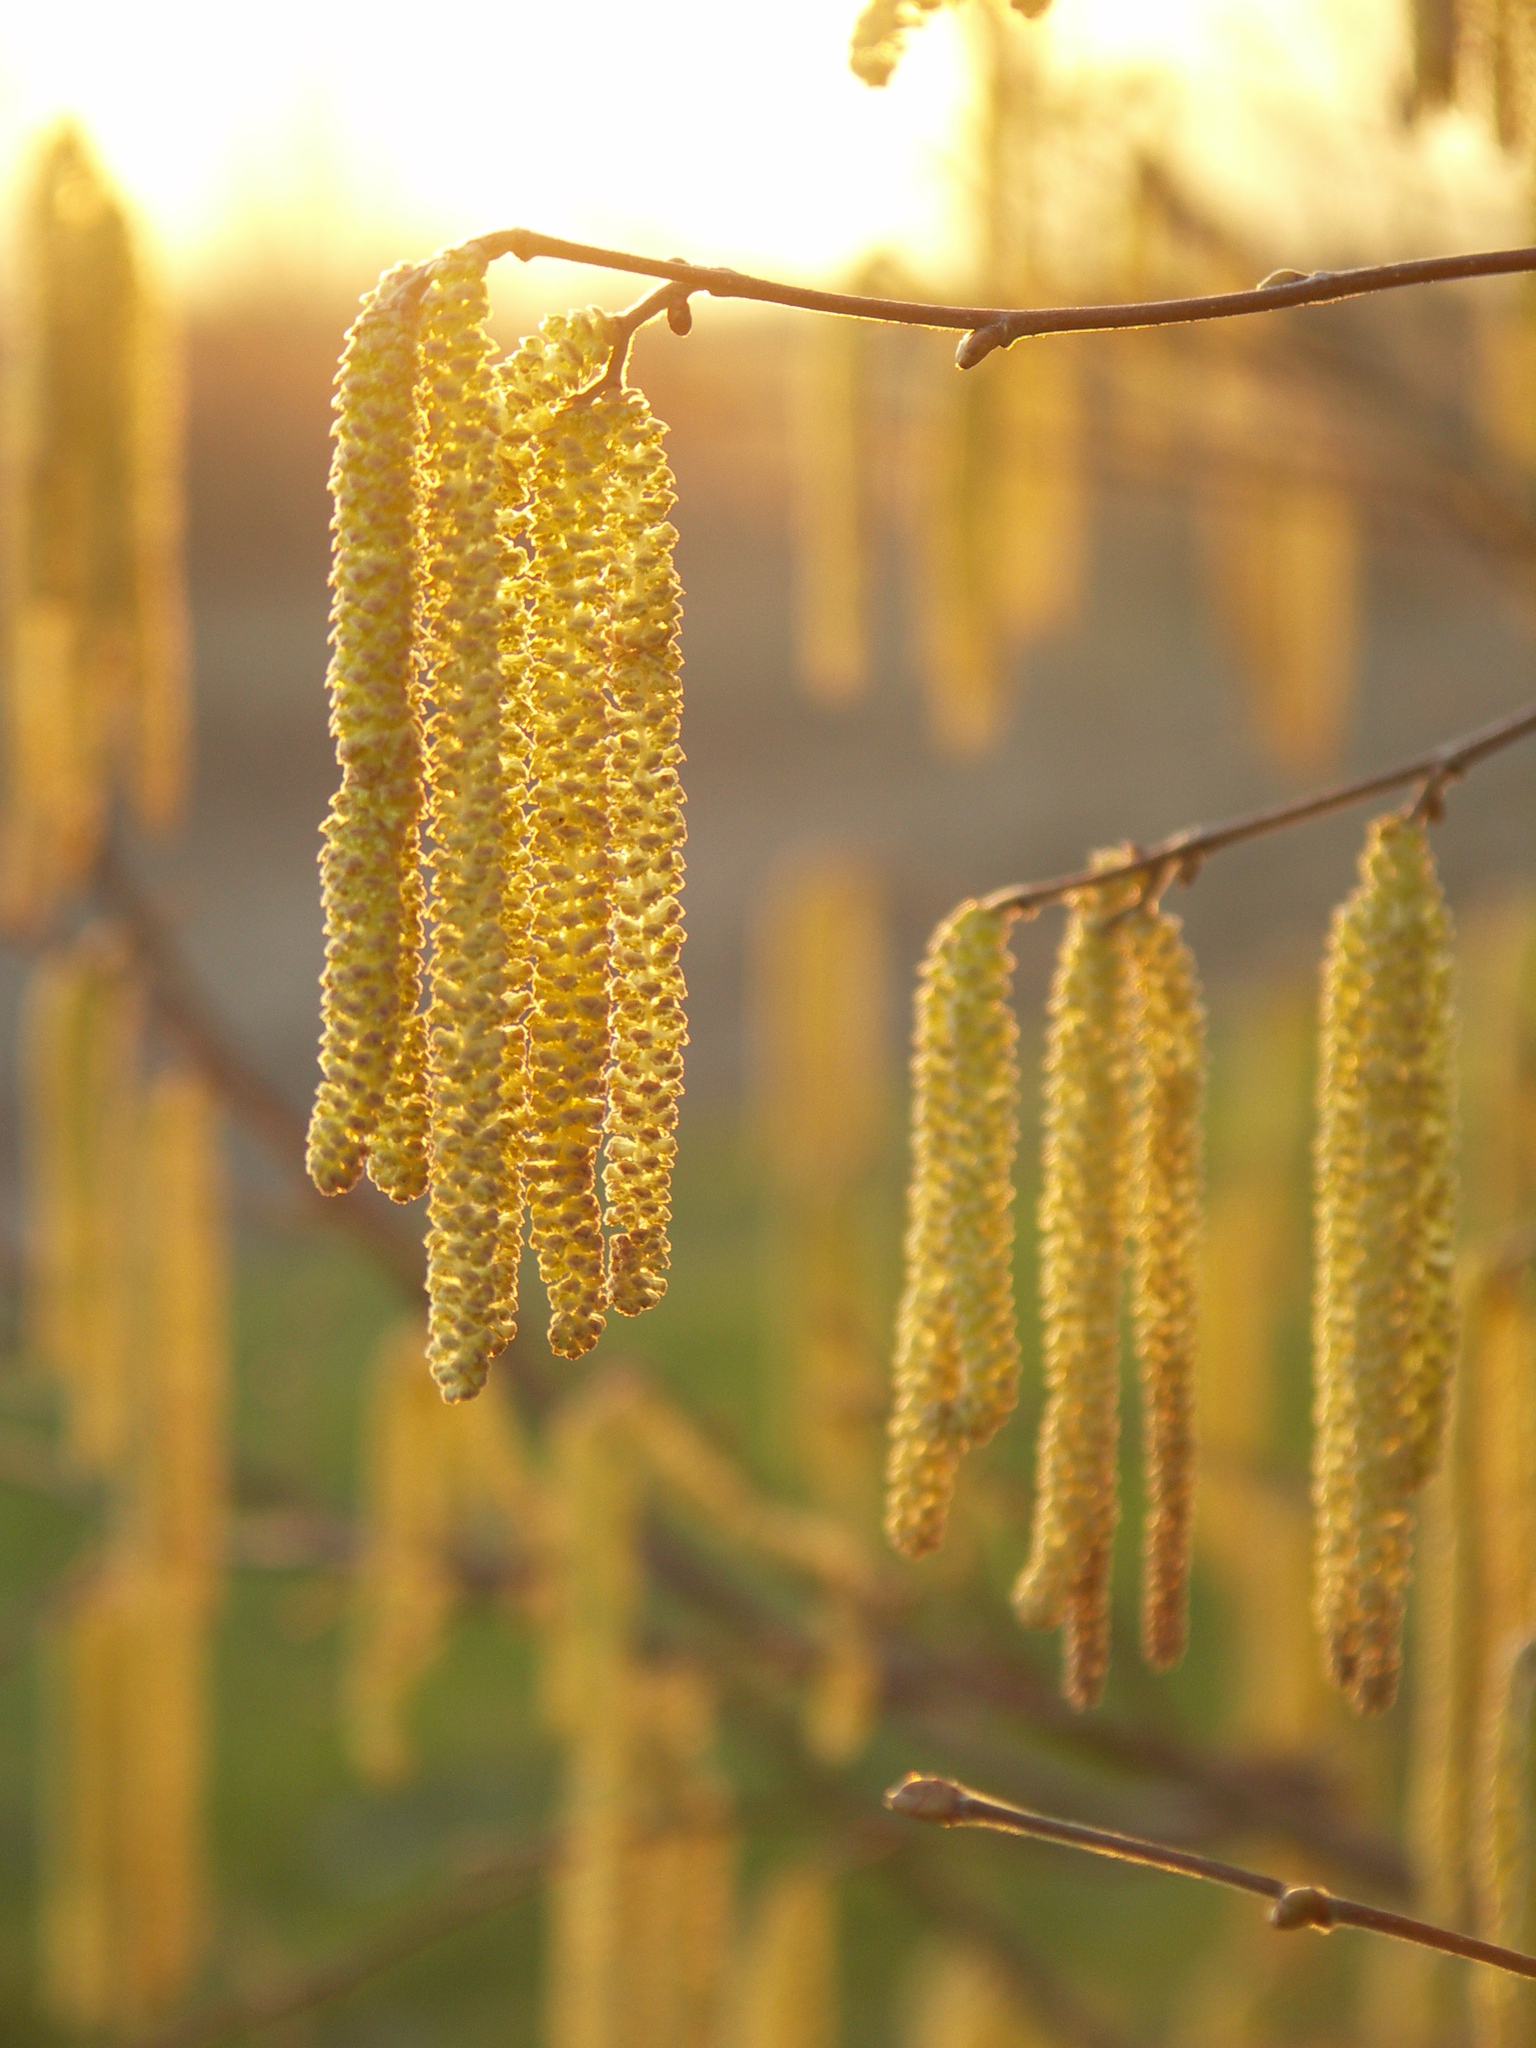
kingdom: Plantae
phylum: Tracheophyta
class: Magnoliopsida
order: Fagales
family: Betulaceae
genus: Corylus
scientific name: Corylus avellana
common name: European hazel
